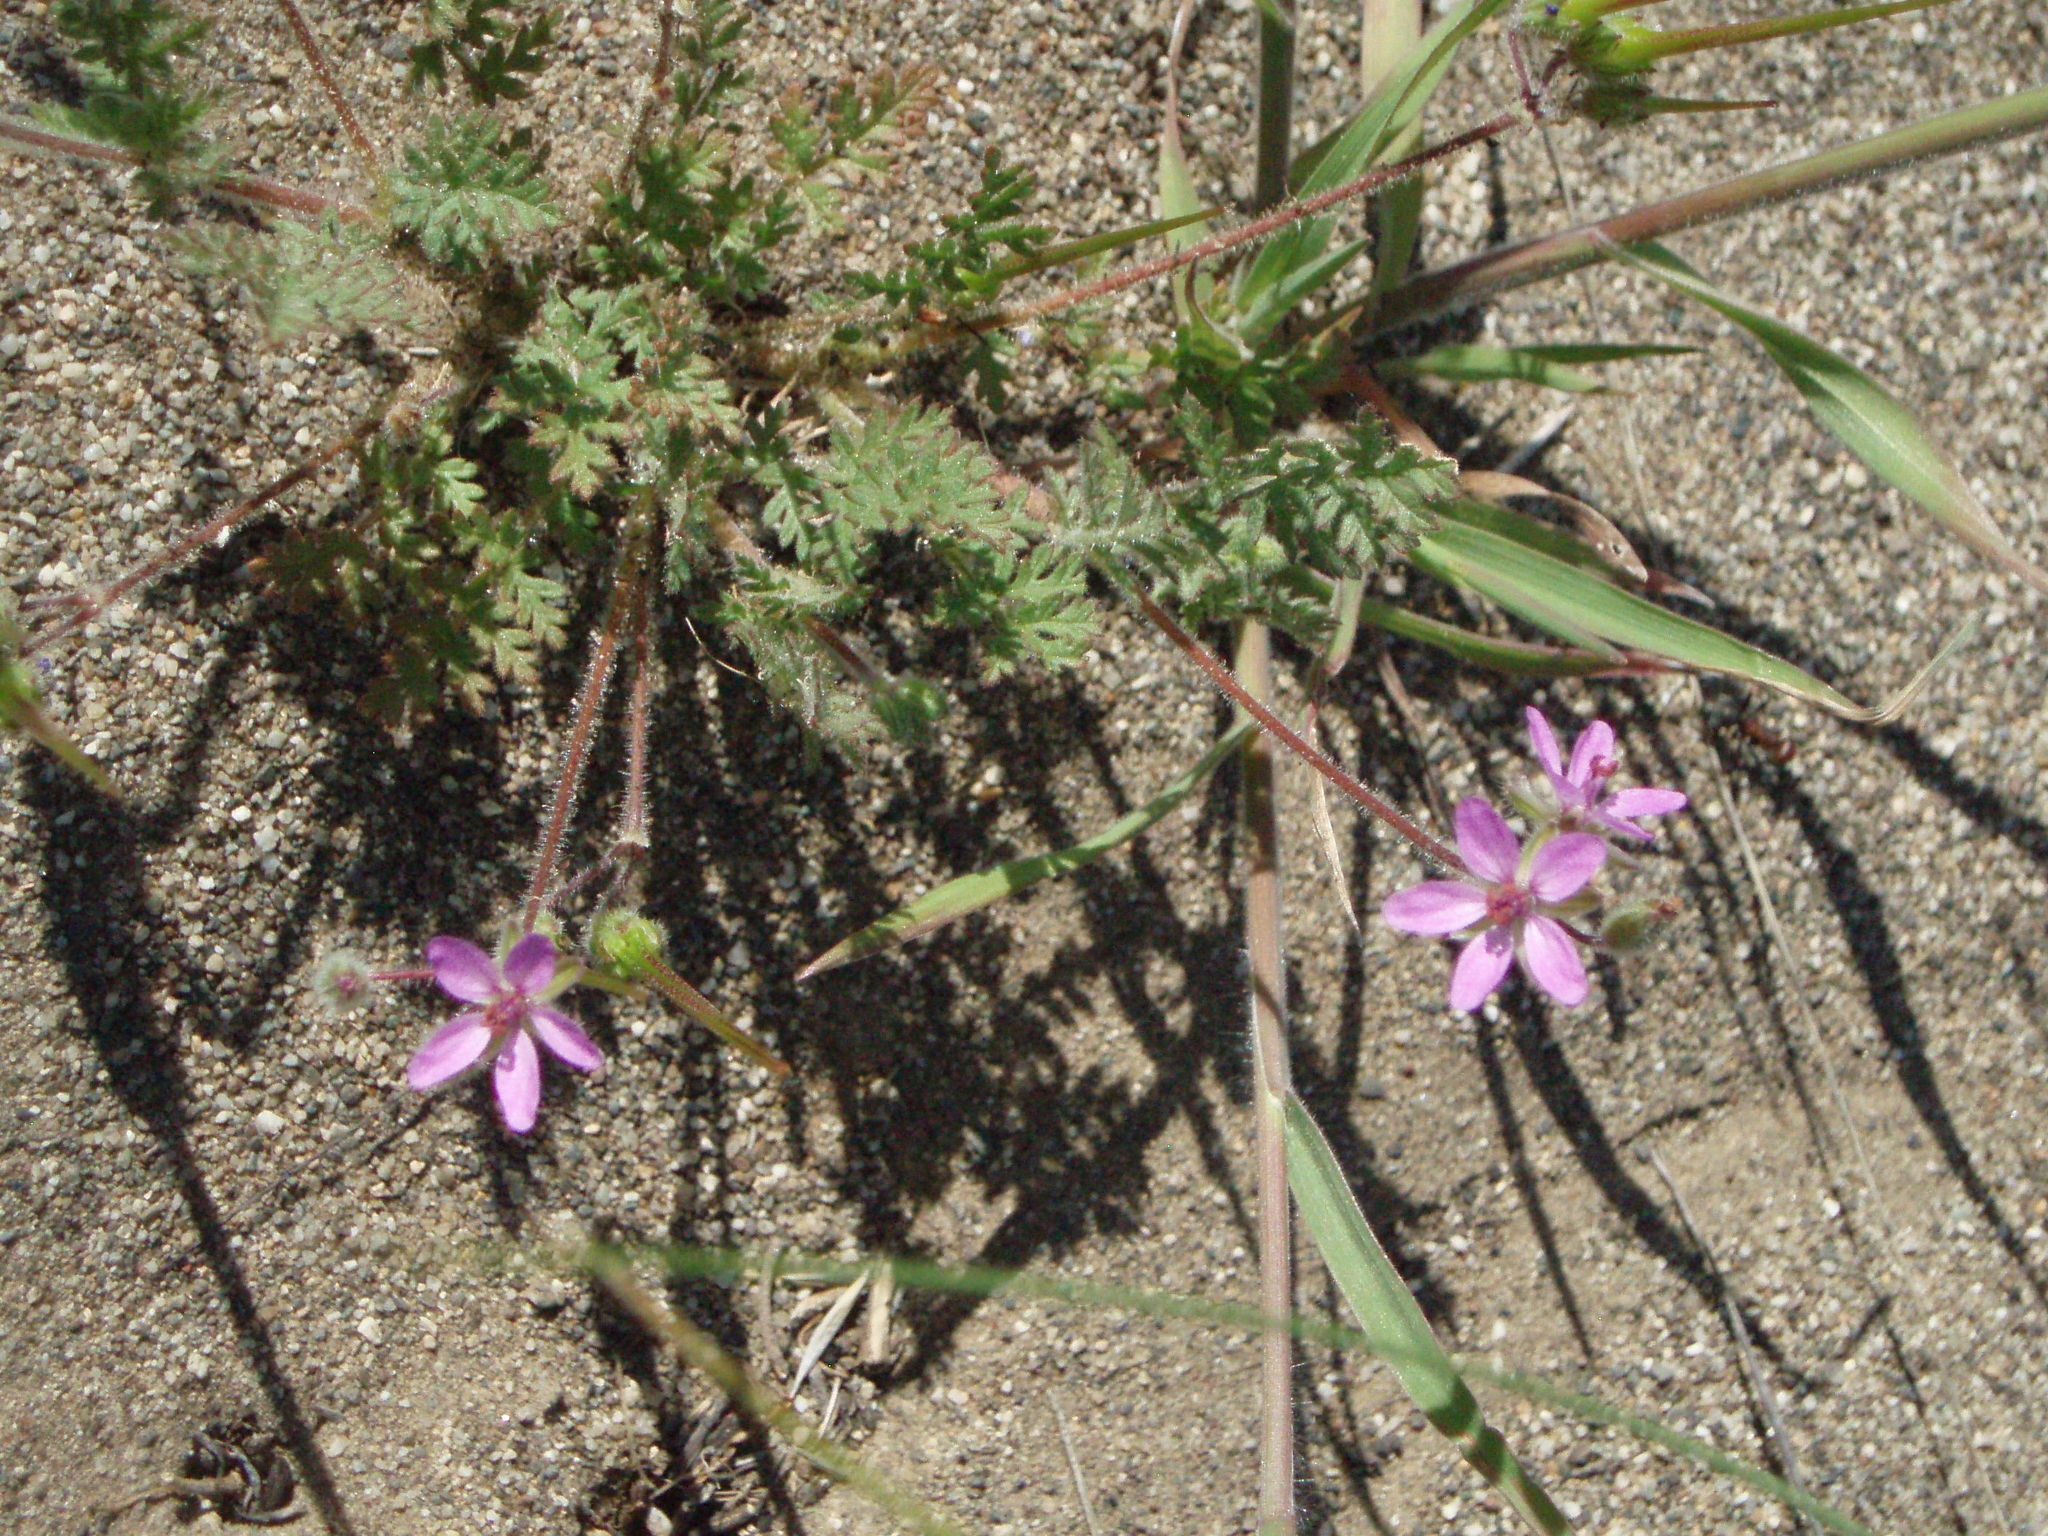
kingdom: Plantae
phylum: Tracheophyta
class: Magnoliopsida
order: Geraniales
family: Geraniaceae
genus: Erodium
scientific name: Erodium cicutarium
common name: Common stork's-bill
